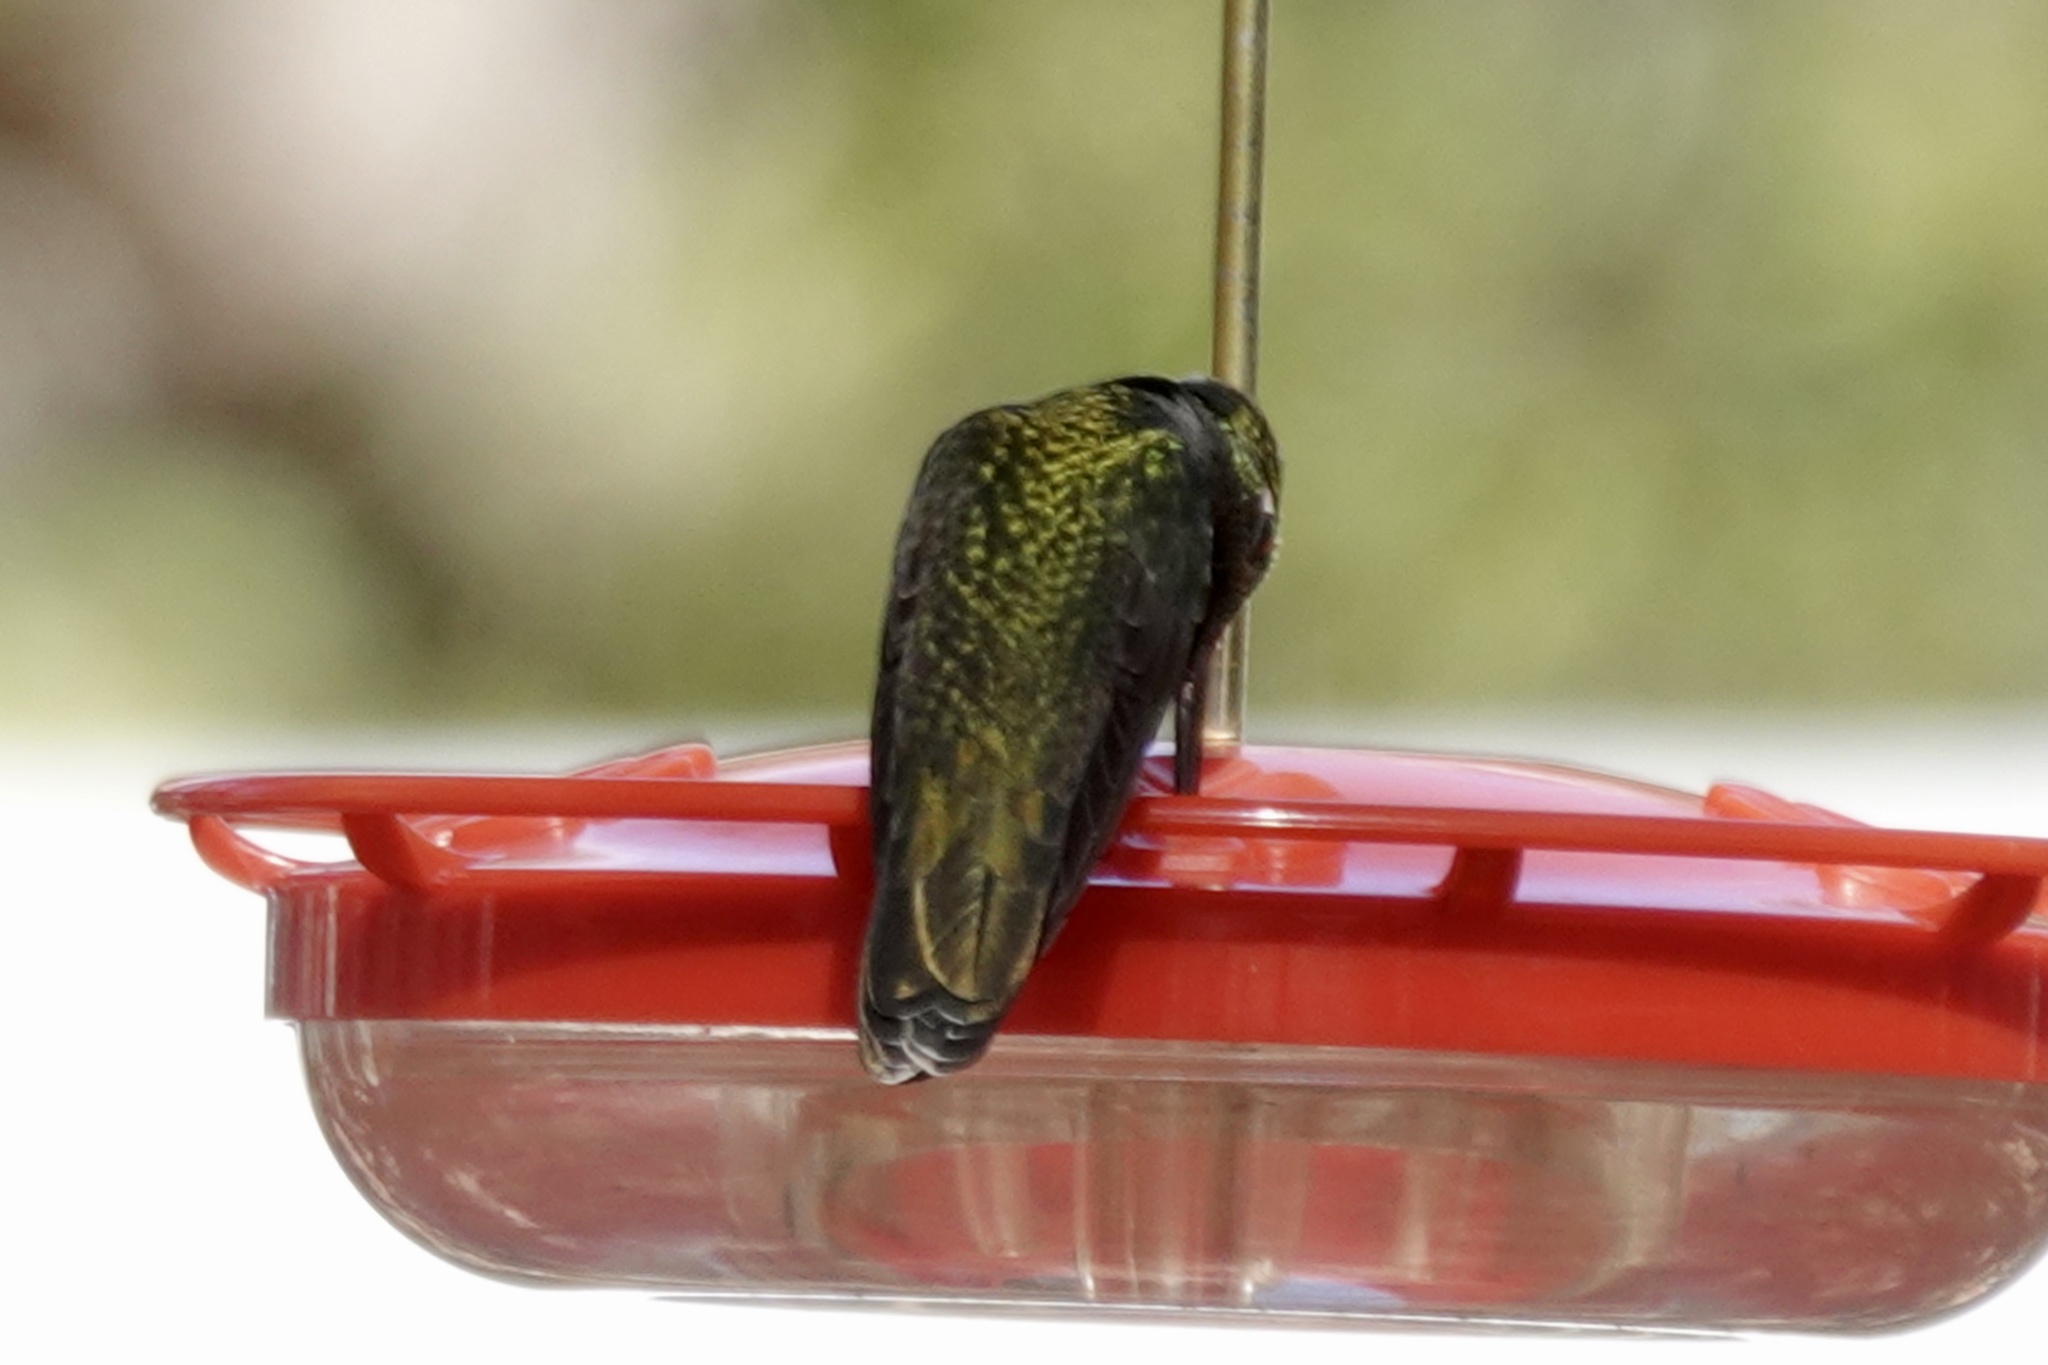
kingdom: Animalia
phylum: Chordata
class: Aves
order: Apodiformes
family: Trochilidae
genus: Eugenes
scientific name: Eugenes fulgens
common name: Magnificent hummingbird
